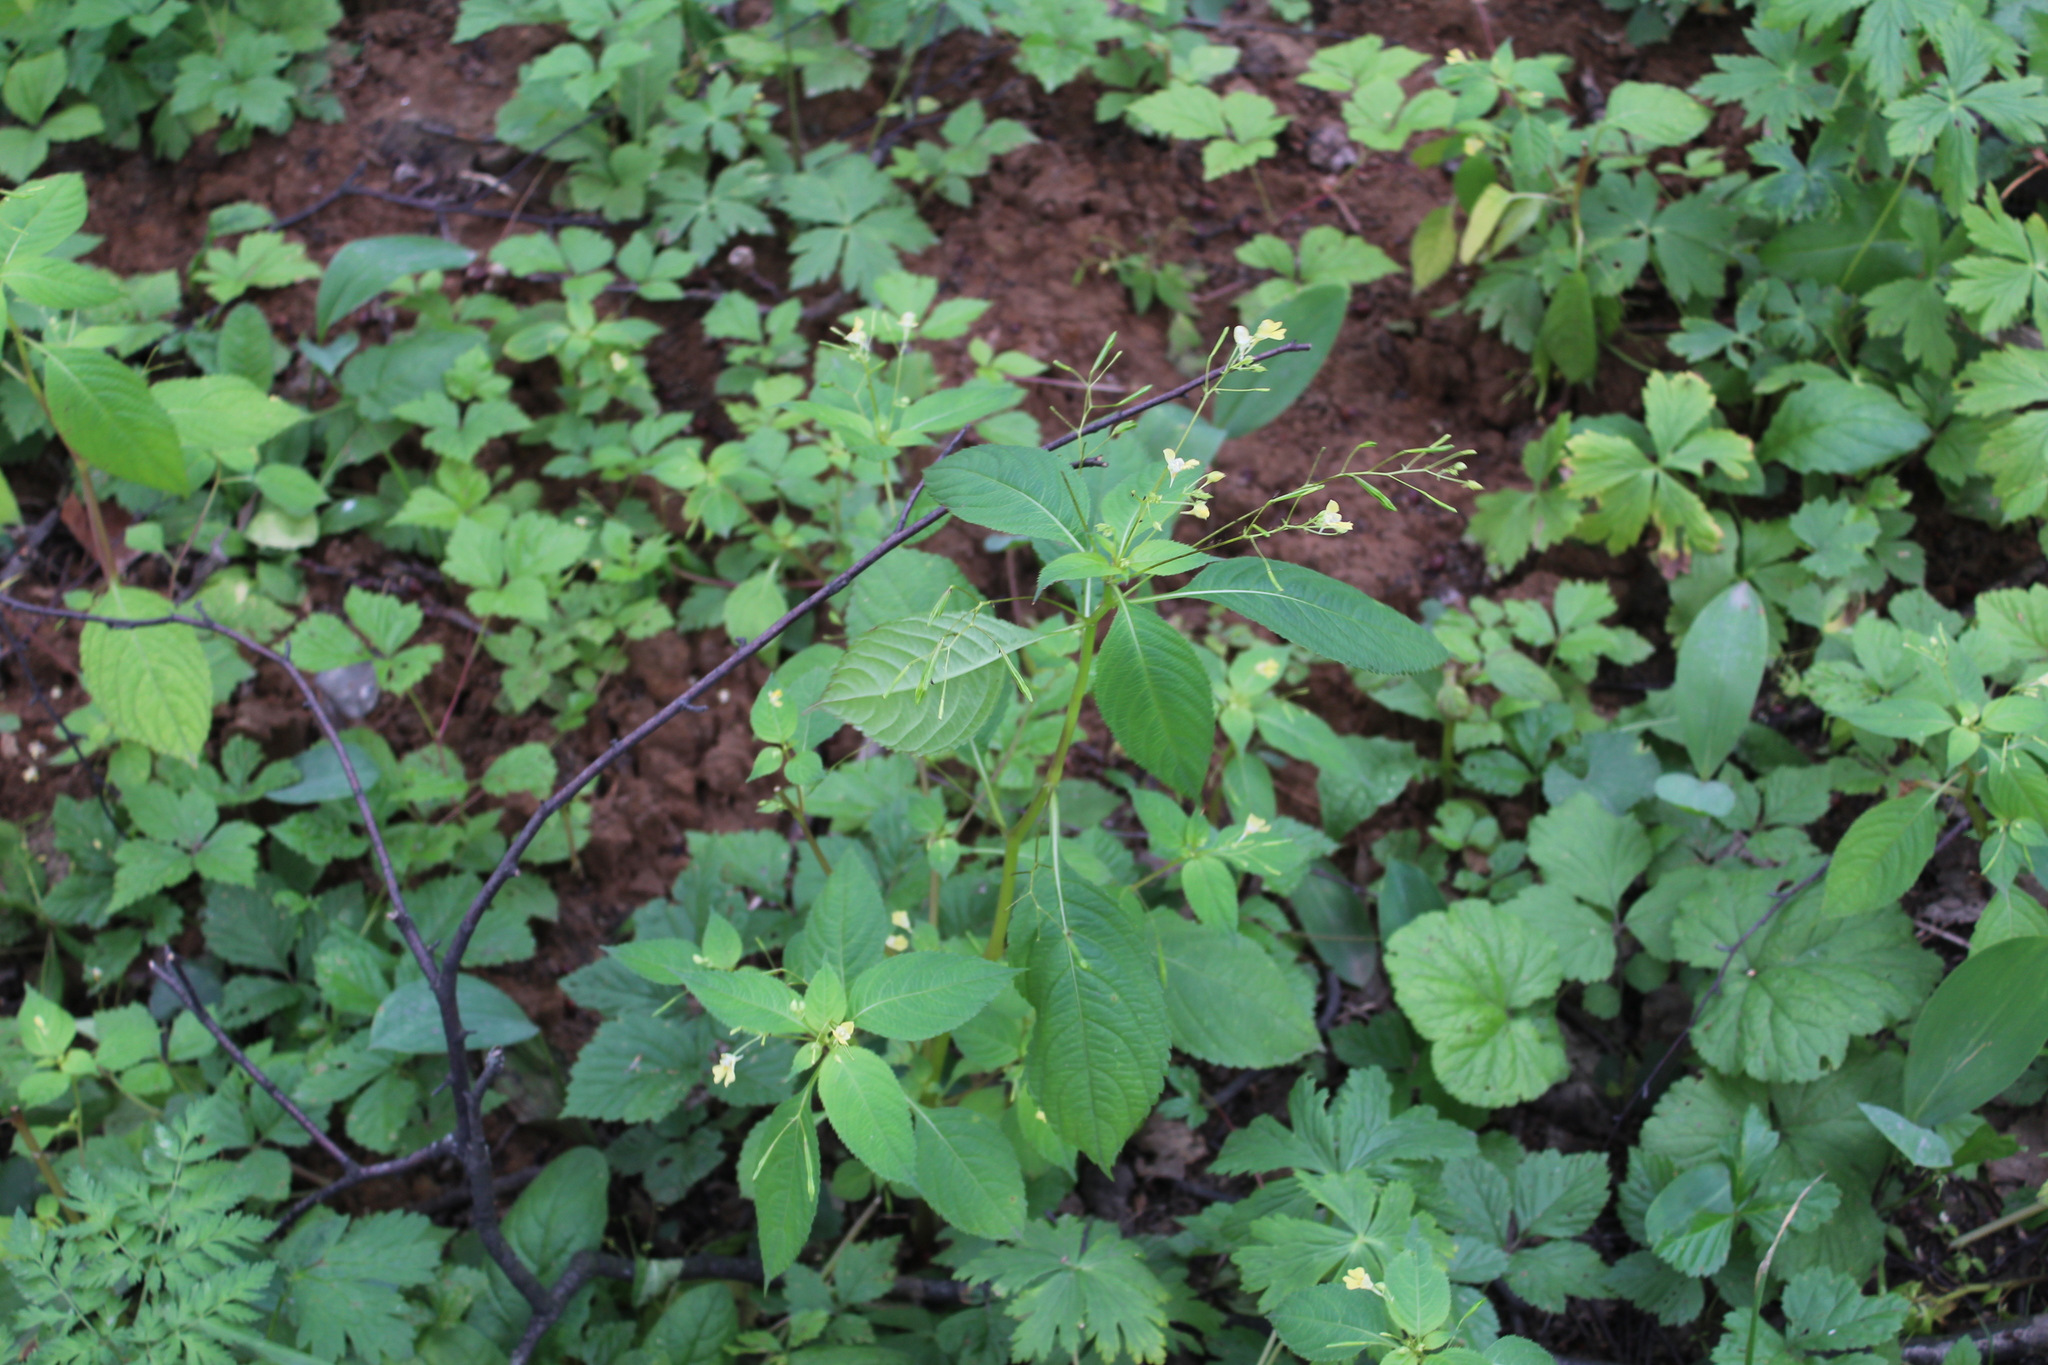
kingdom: Plantae
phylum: Tracheophyta
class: Magnoliopsida
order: Ericales
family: Balsaminaceae
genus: Impatiens
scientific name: Impatiens parviflora
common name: Small balsam
